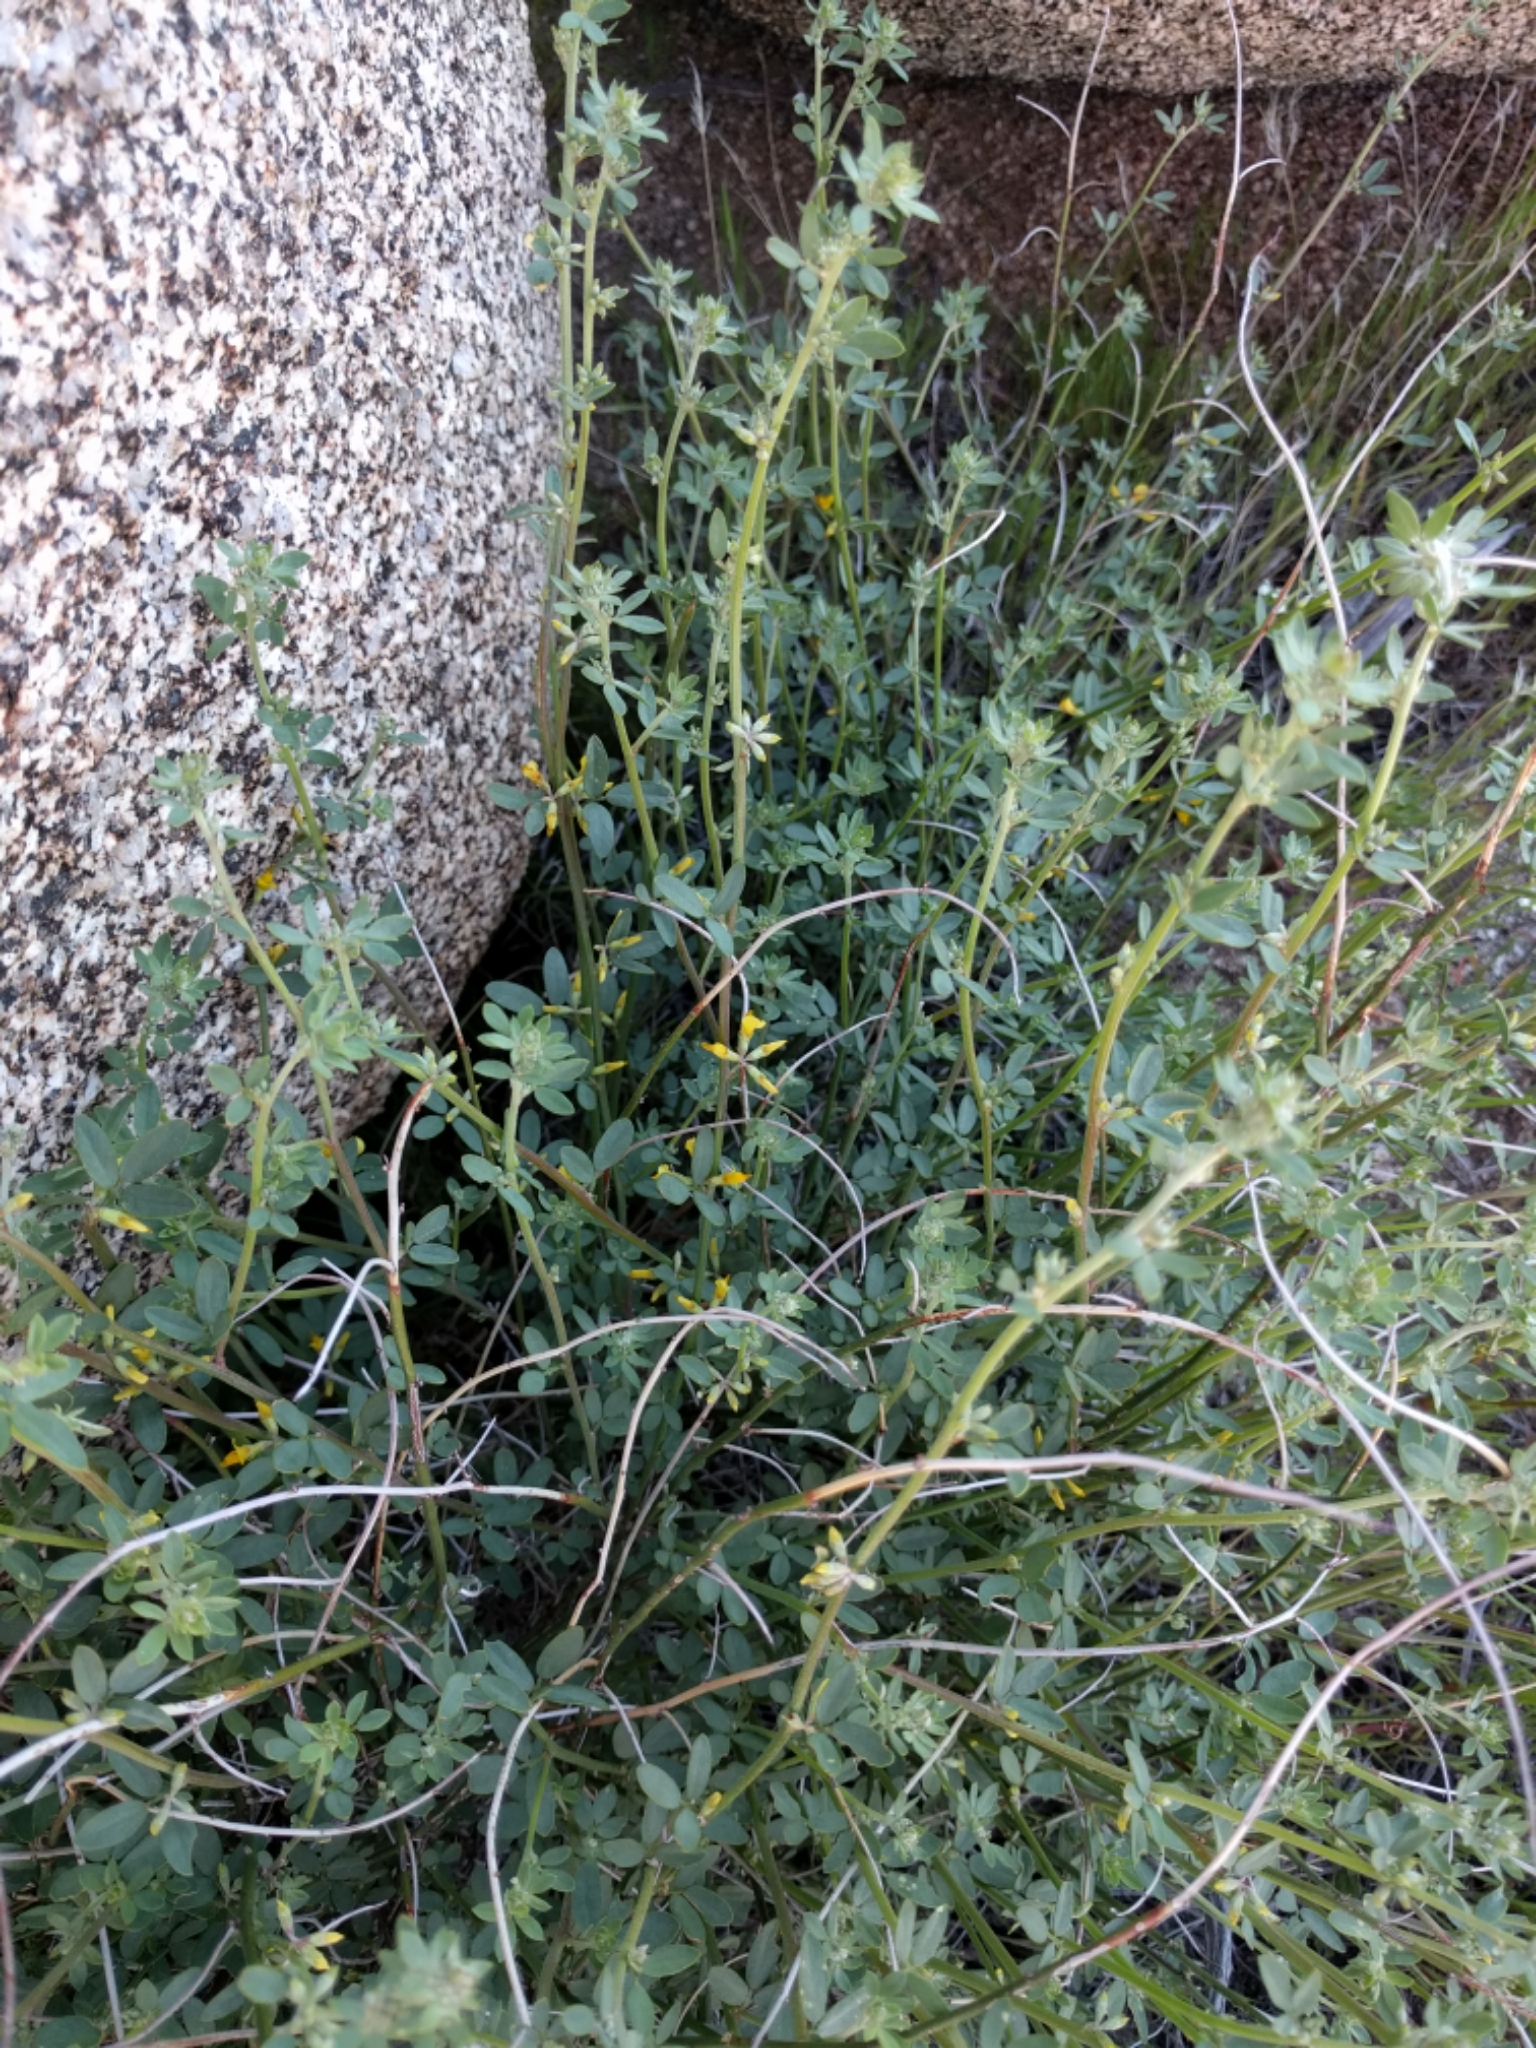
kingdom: Plantae
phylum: Tracheophyta
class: Magnoliopsida
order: Fabales
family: Fabaceae
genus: Acmispon
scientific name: Acmispon glaber
